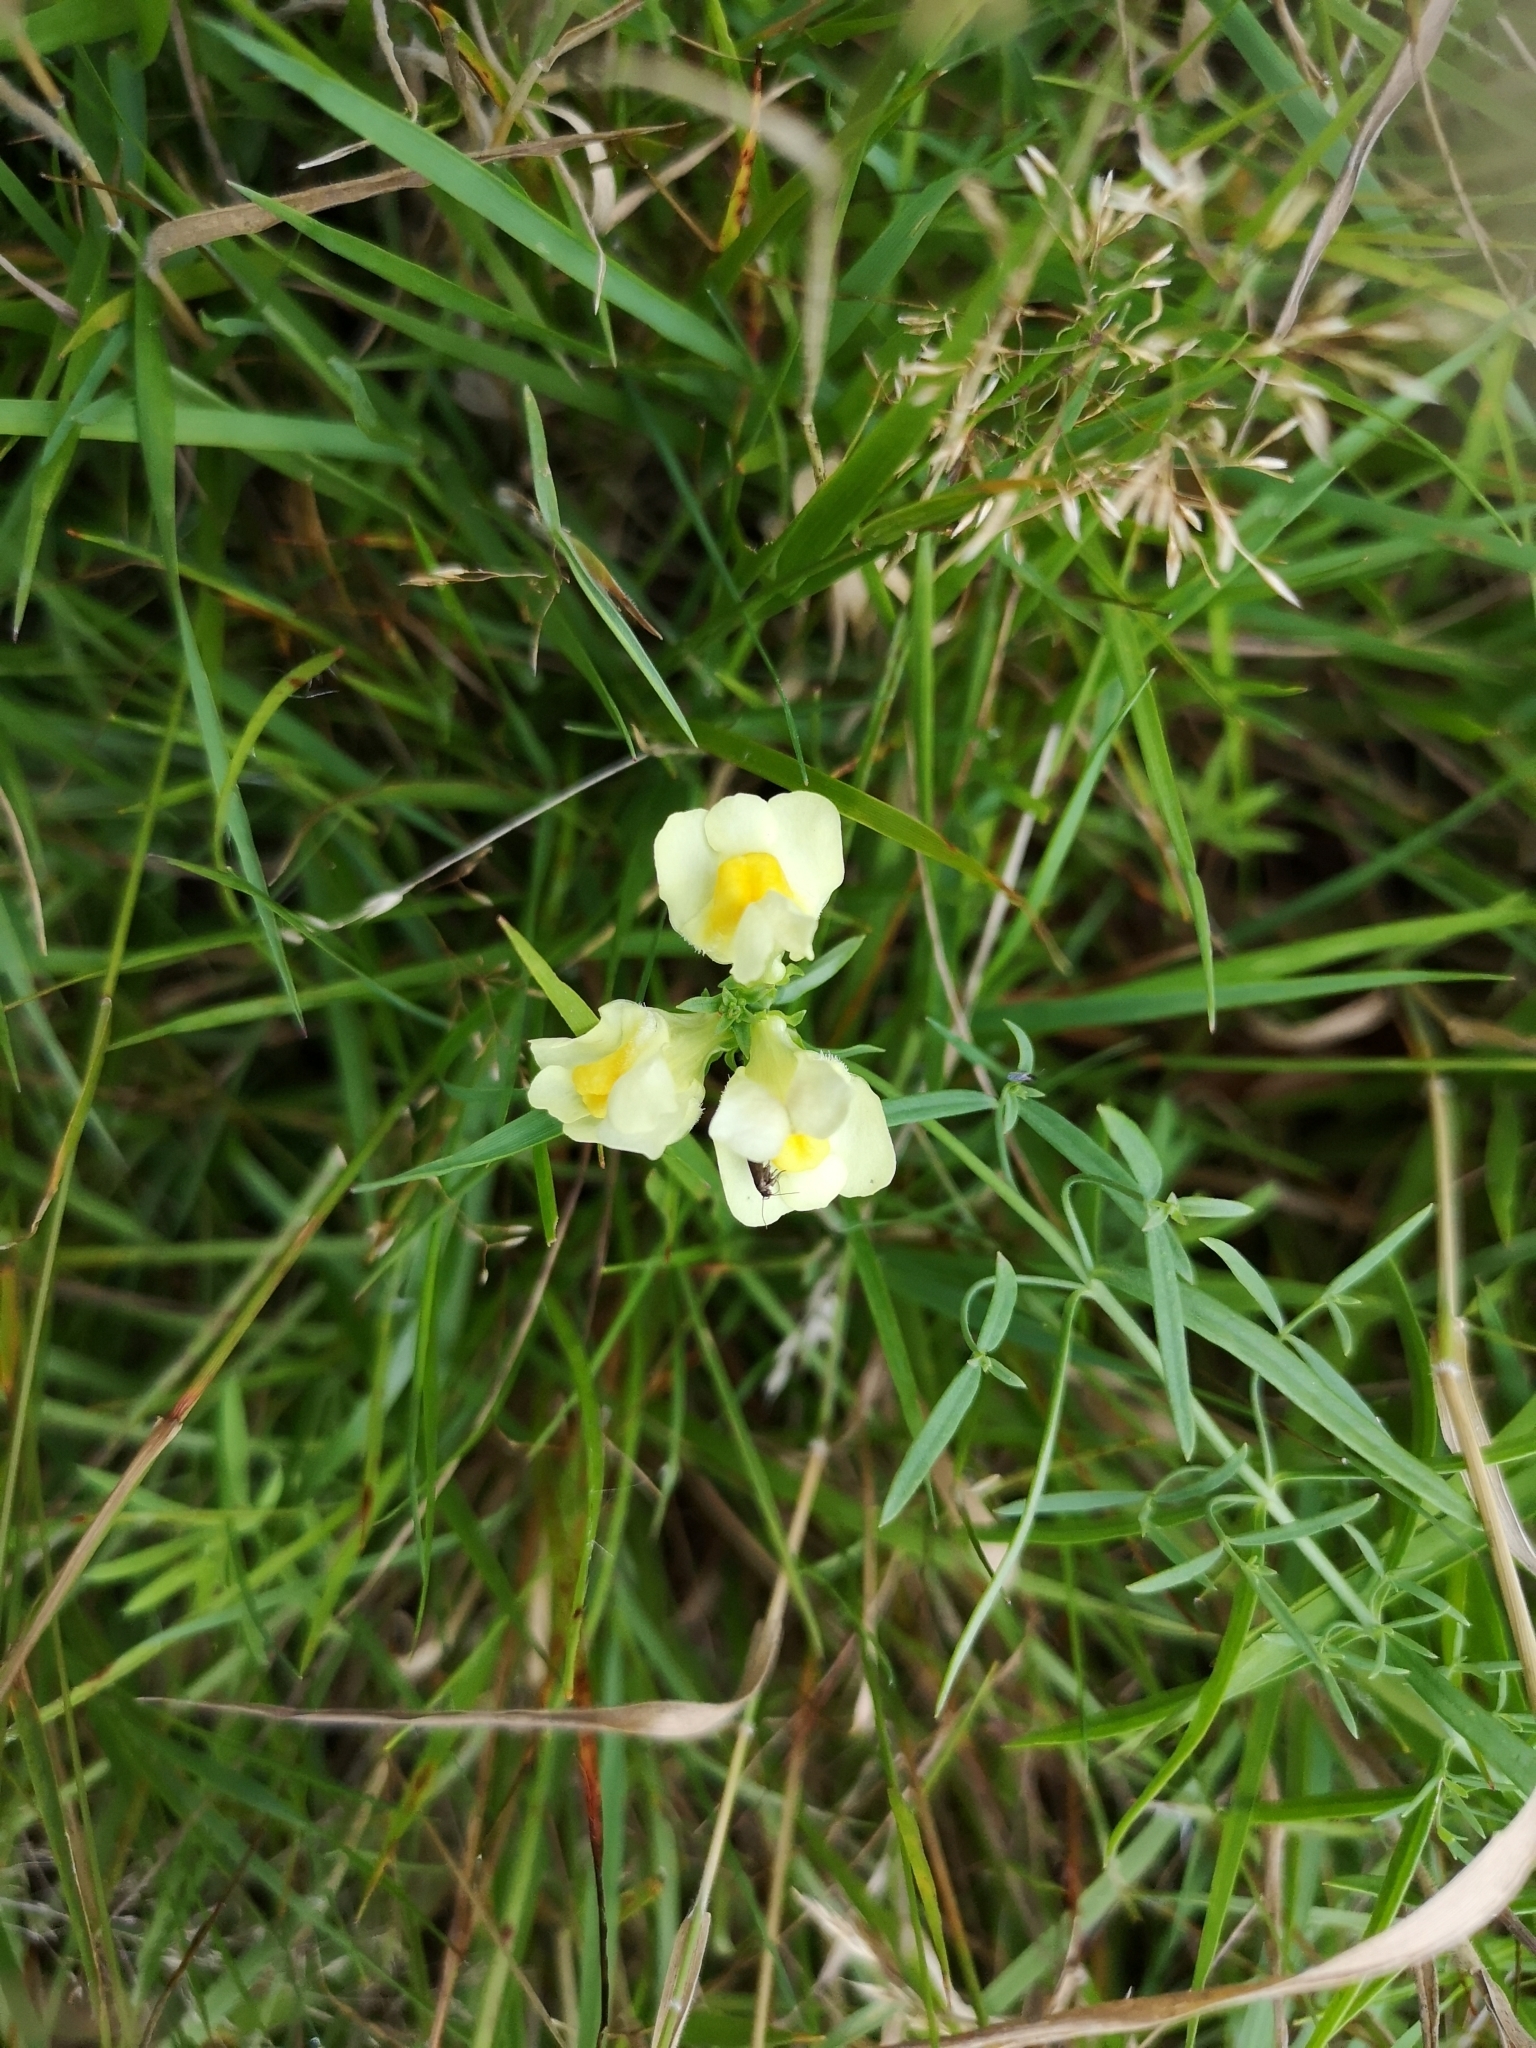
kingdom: Plantae
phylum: Tracheophyta
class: Magnoliopsida
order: Lamiales
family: Plantaginaceae
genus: Linaria
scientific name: Linaria vulgaris
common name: Butter and eggs
